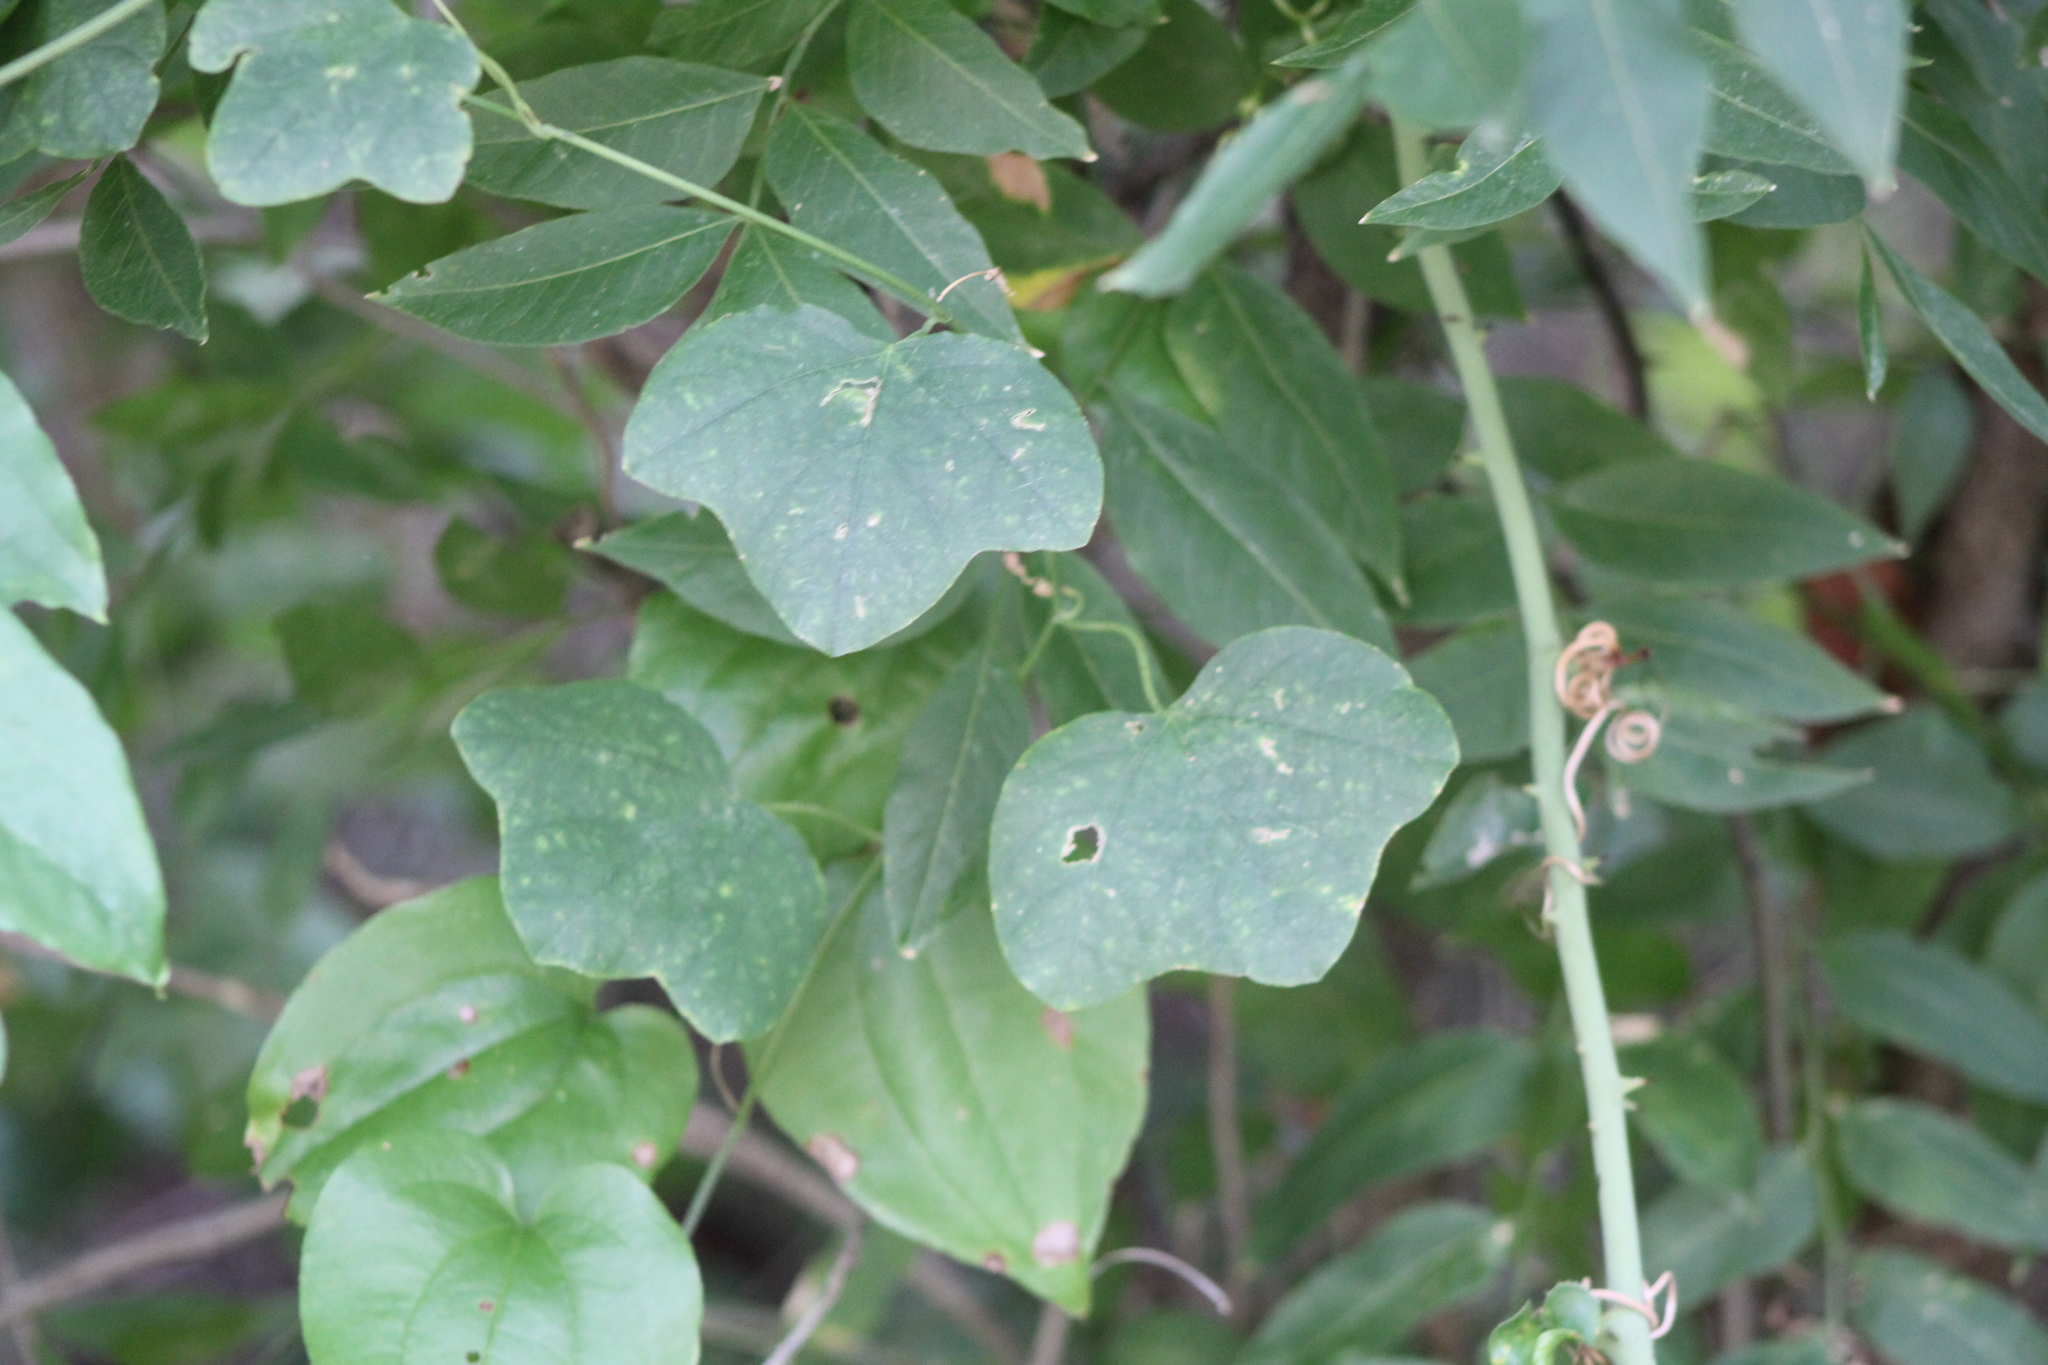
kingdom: Plantae
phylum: Tracheophyta
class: Magnoliopsida
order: Malpighiales
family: Passifloraceae
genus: Passiflora
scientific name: Passiflora lutea
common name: Yellow passionflower
